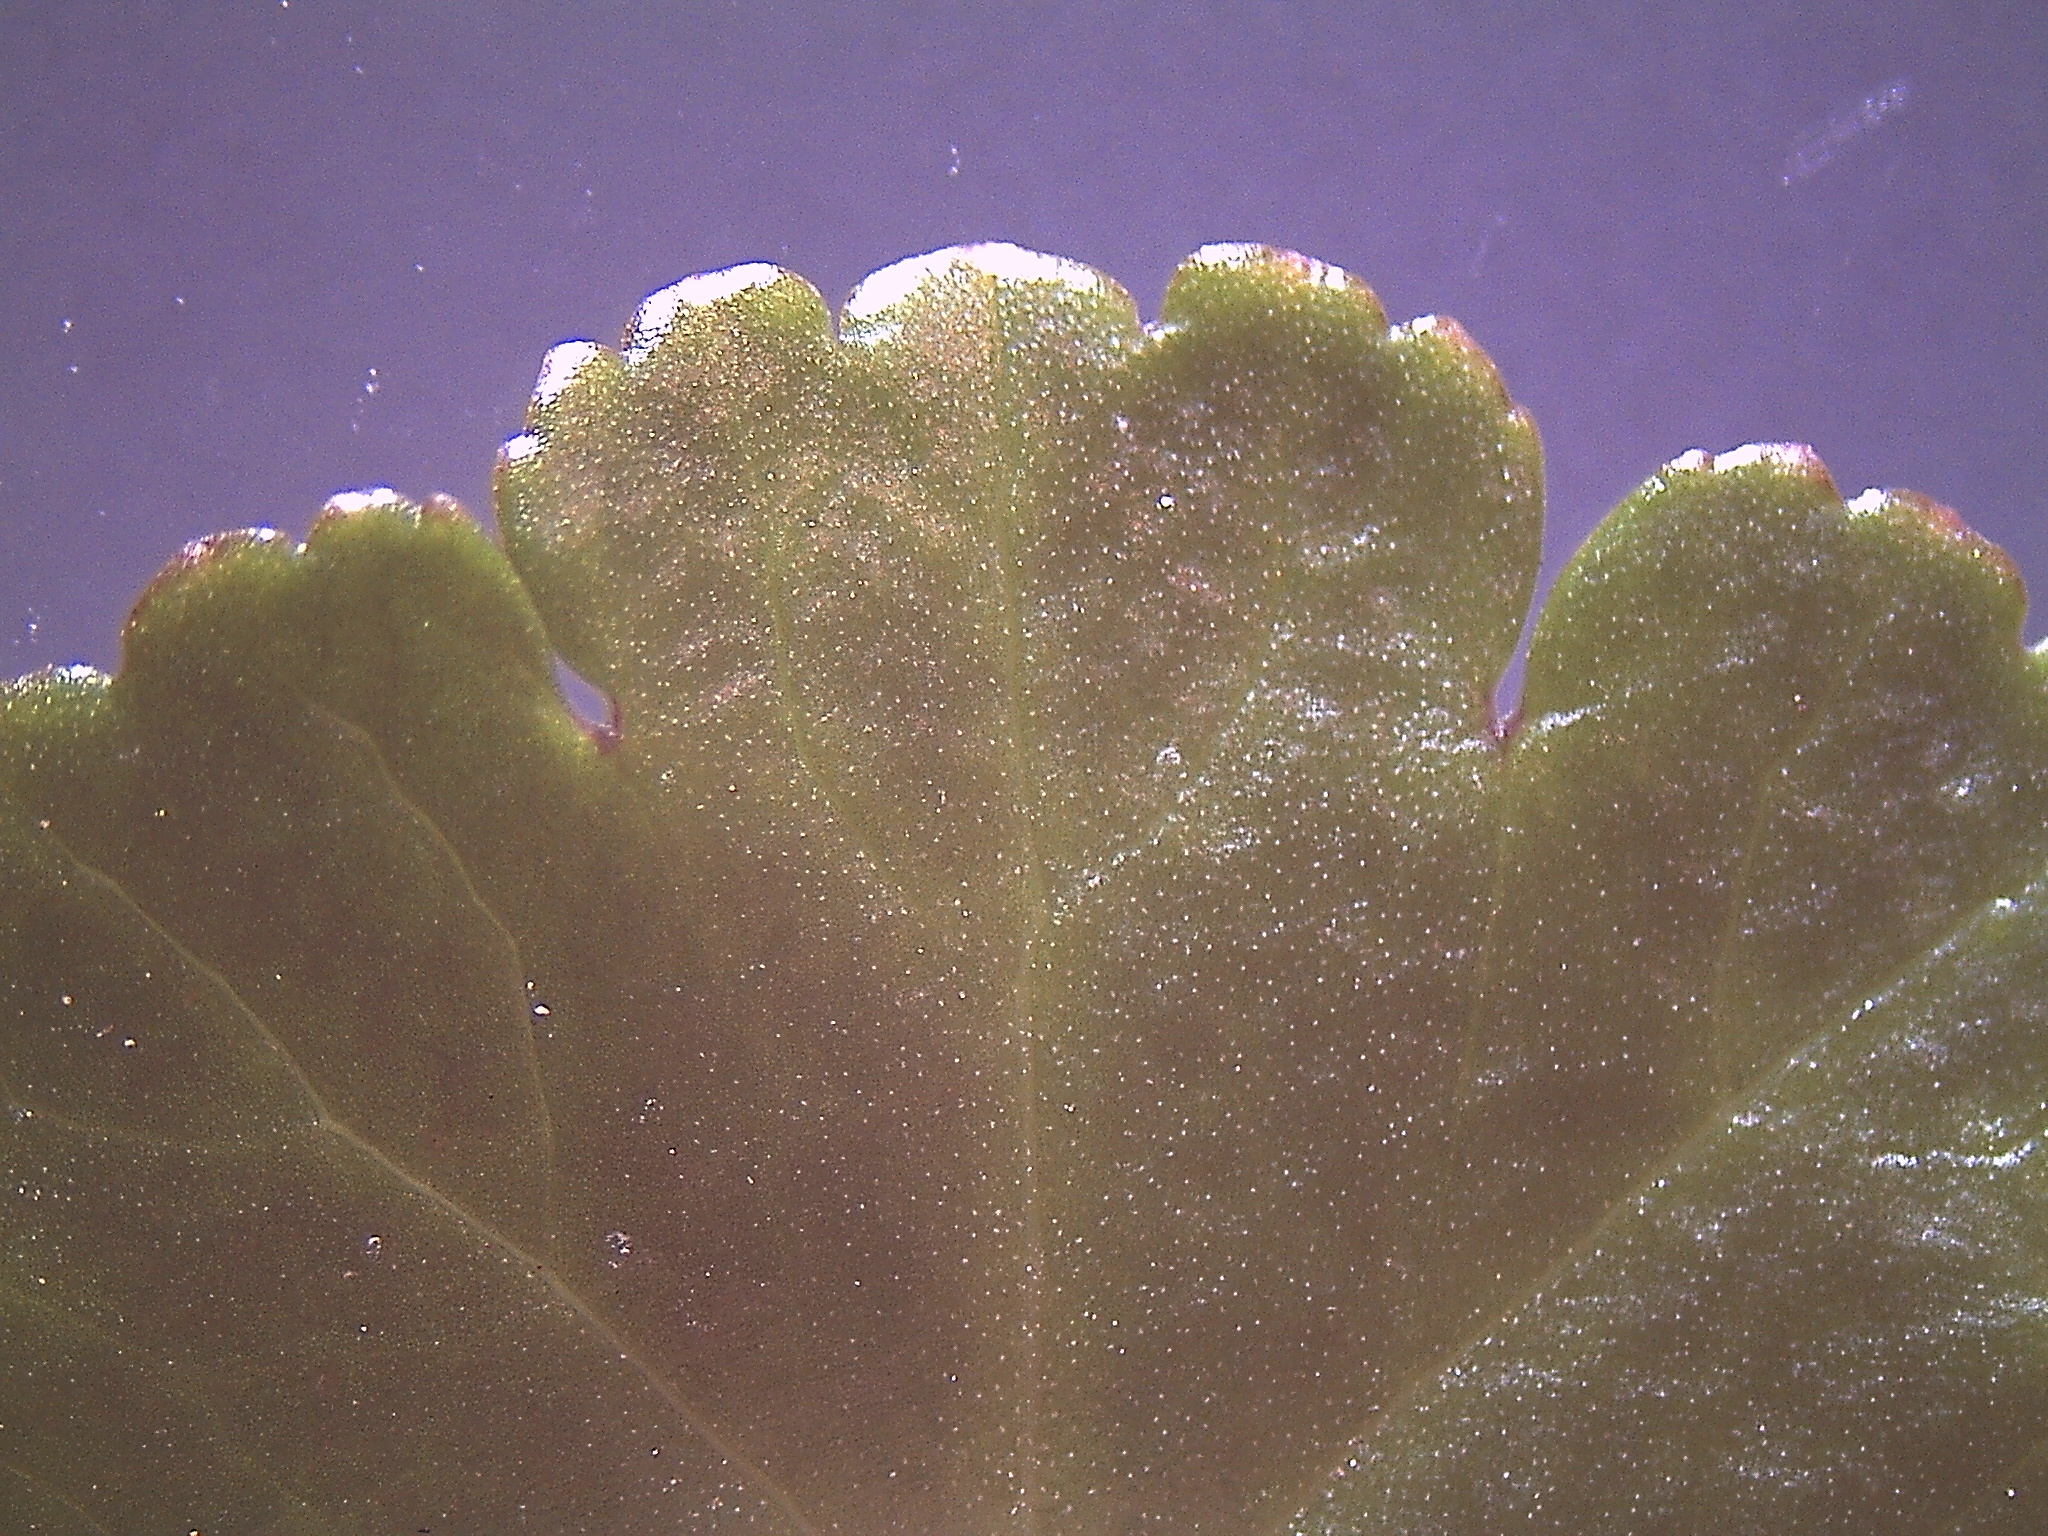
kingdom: Plantae
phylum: Tracheophyta
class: Magnoliopsida
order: Apiales
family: Araliaceae
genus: Hydrocotyle
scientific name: Hydrocotyle novae-zeelandiae
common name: New zealand pennywort
